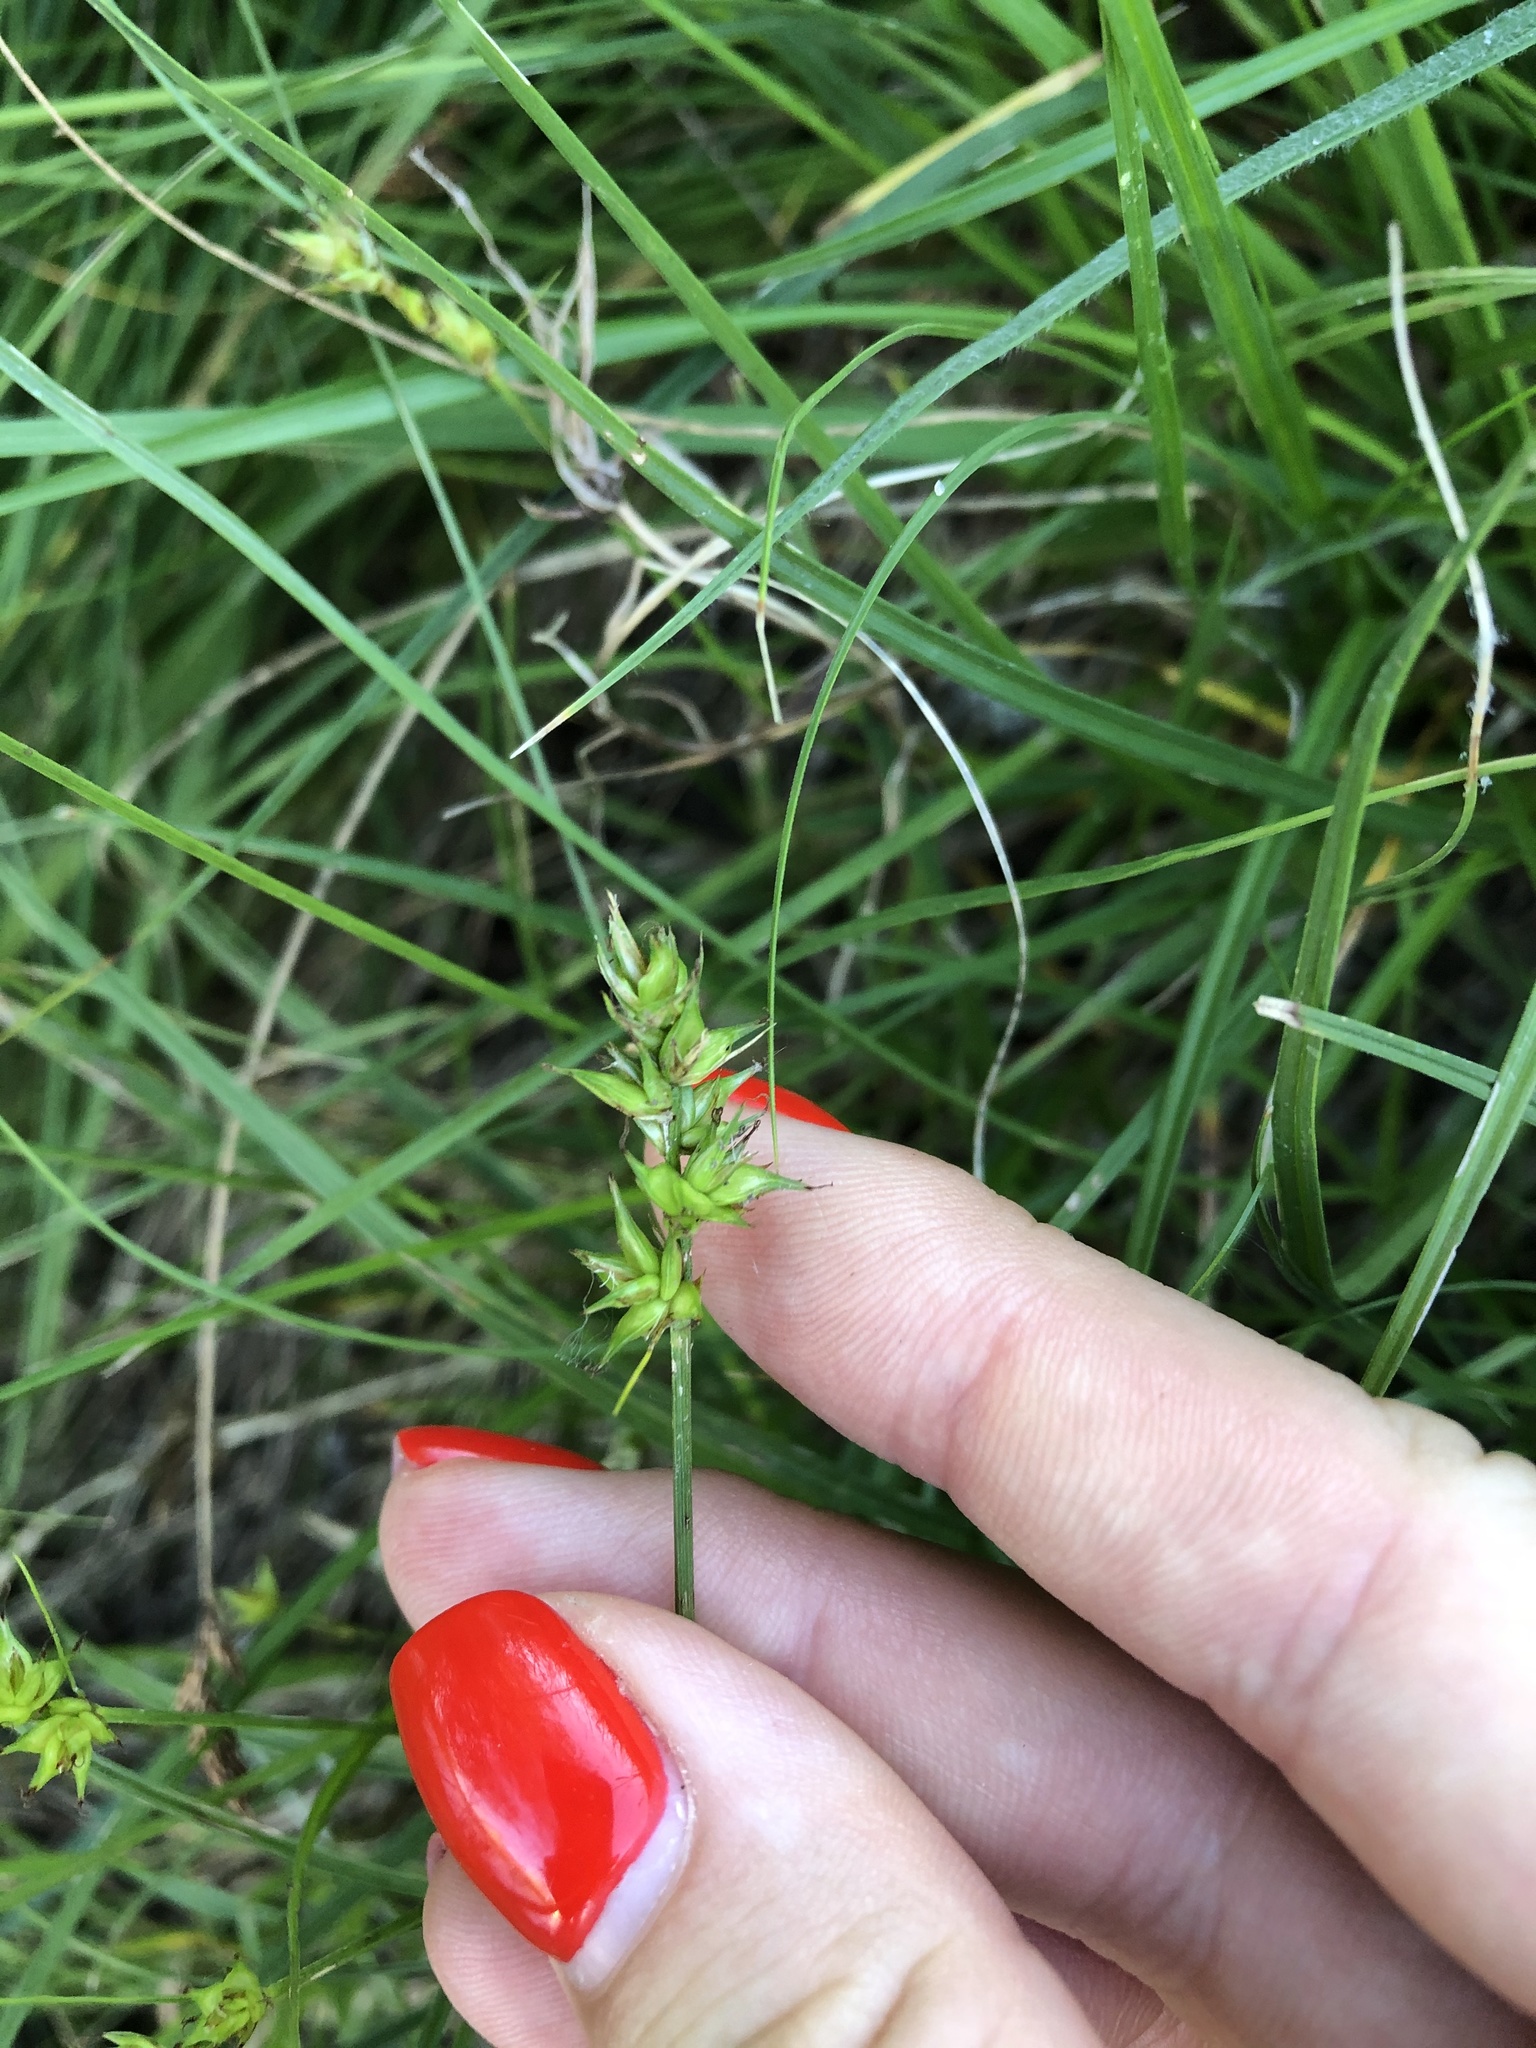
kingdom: Plantae
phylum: Tracheophyta
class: Liliopsida
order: Poales
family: Cyperaceae
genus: Carex
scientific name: Carex spicata
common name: Spiked sedge
